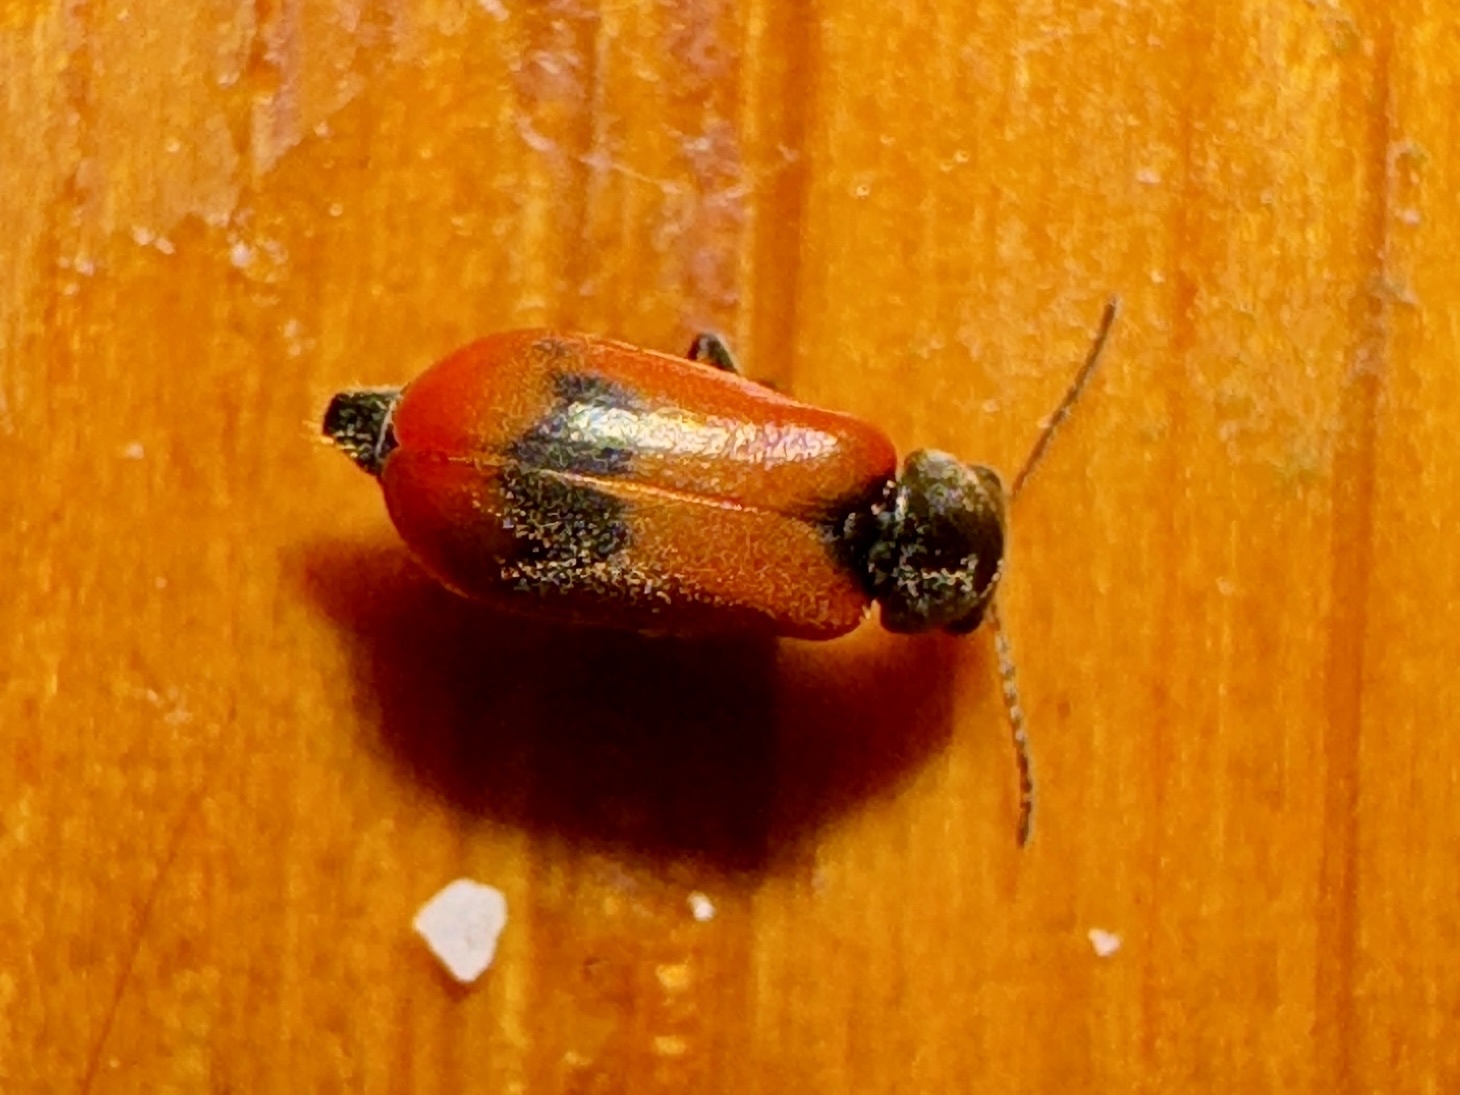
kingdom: Animalia
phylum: Arthropoda
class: Insecta
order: Coleoptera
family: Melyridae
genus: Anthocomus
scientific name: Anthocomus equestris
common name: Black-banded soft-winged flower beetle
